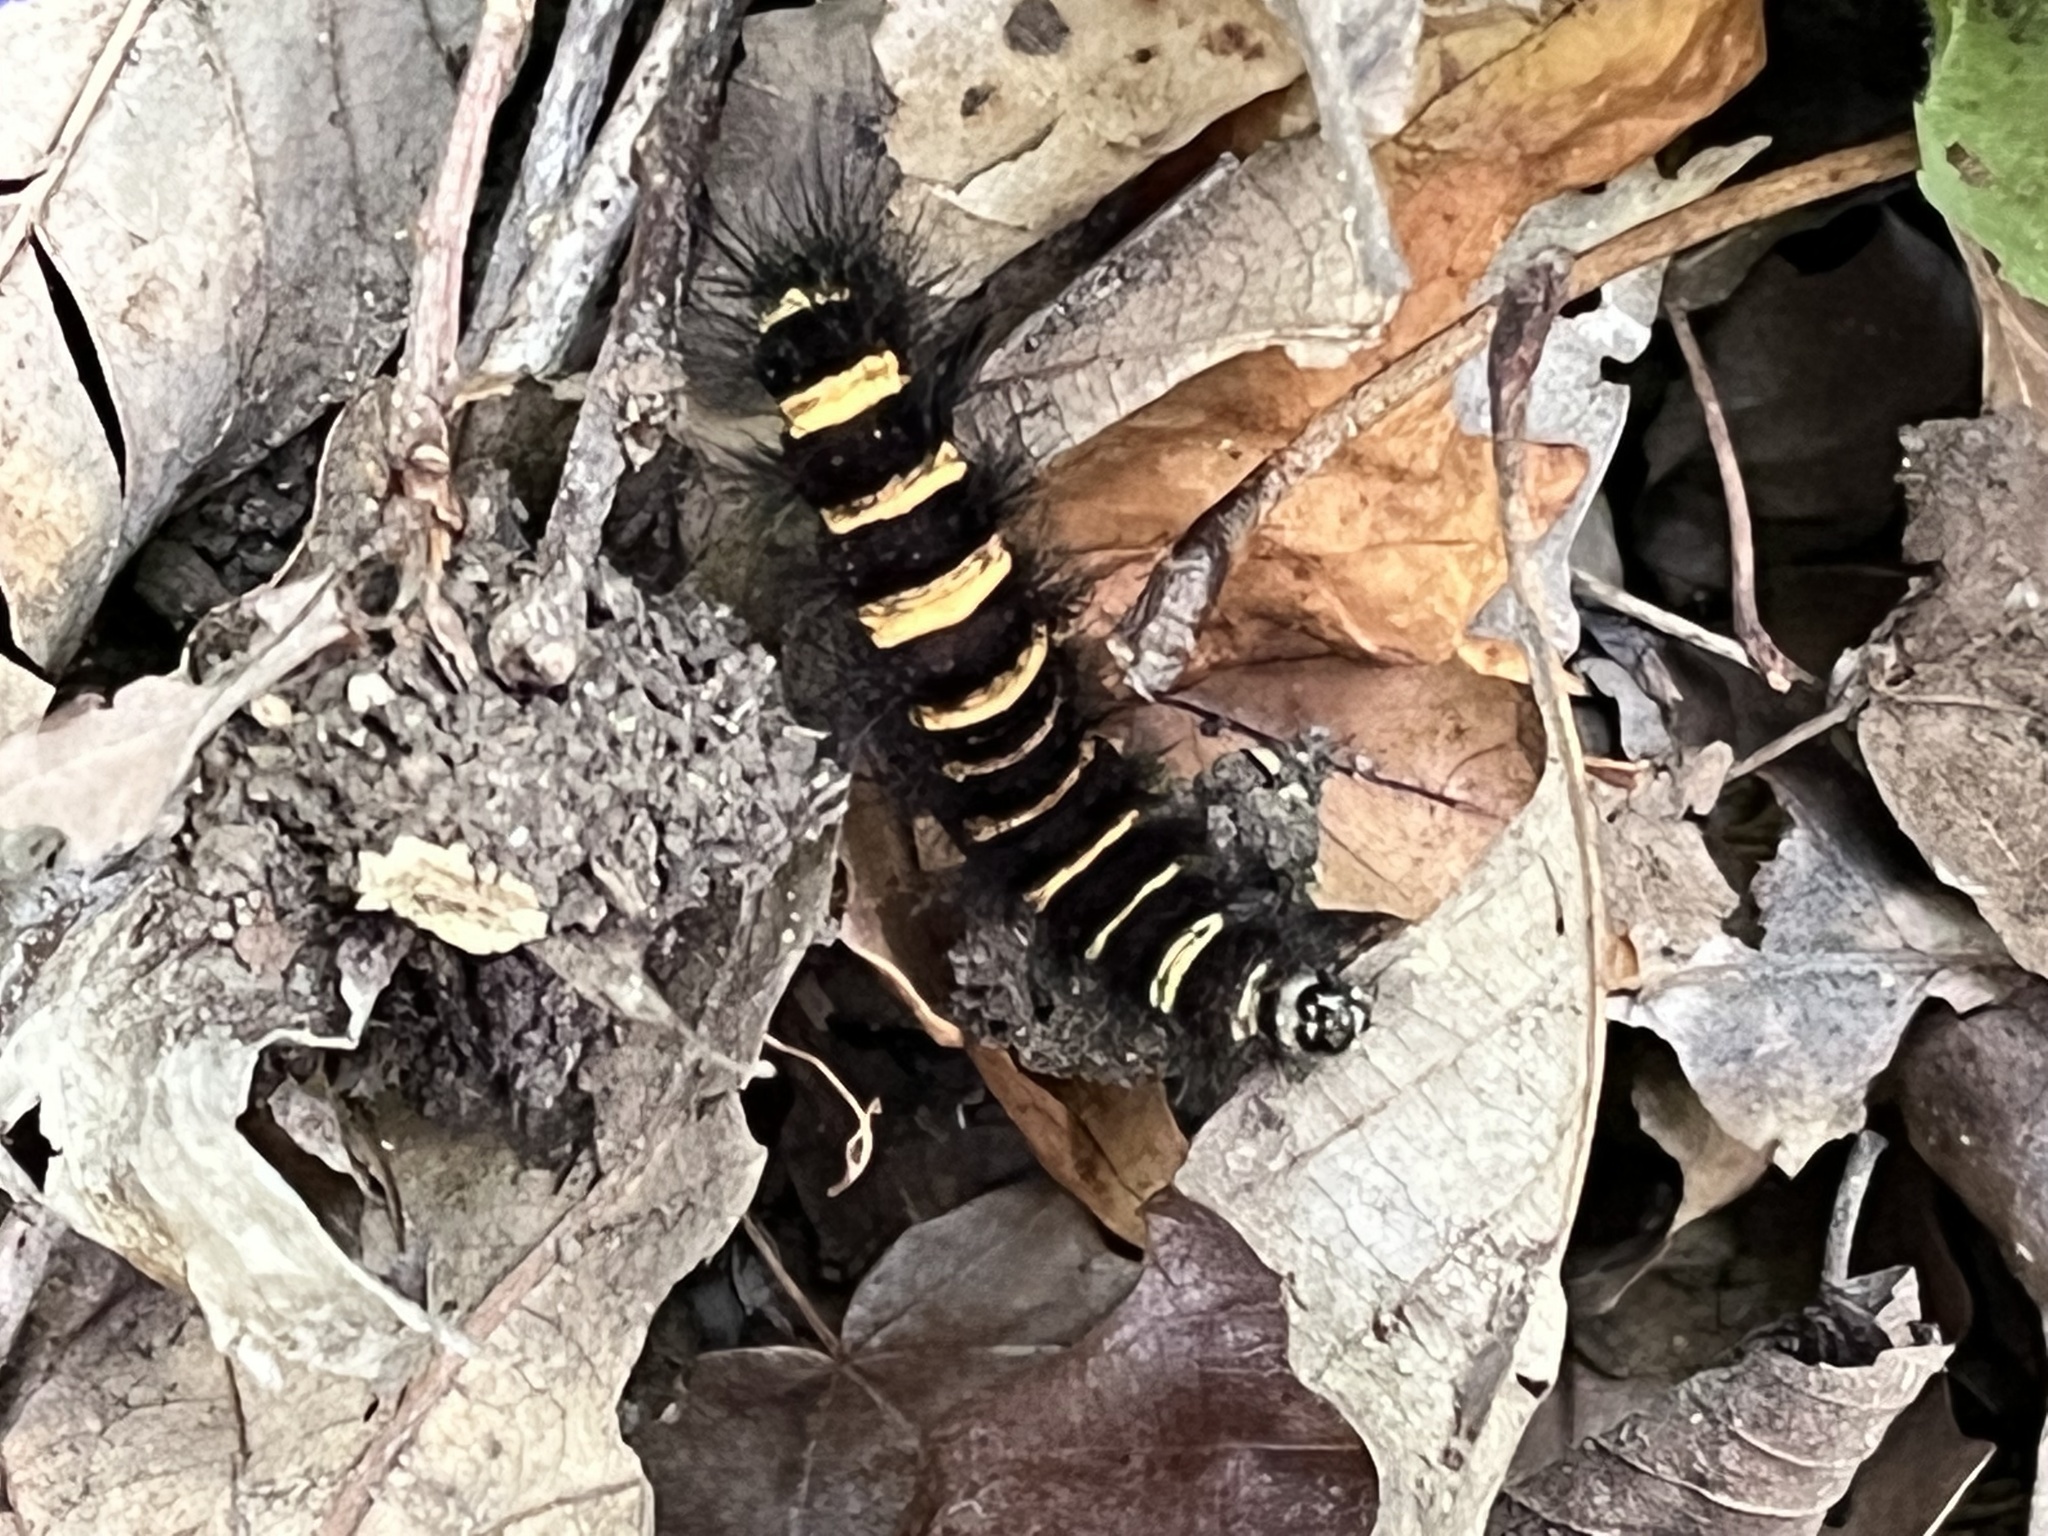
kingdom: Animalia
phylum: Arthropoda
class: Insecta
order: Lepidoptera
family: Erebidae
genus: Spilosoma
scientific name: Spilosoma congrua
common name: Agreeable tiger moth
